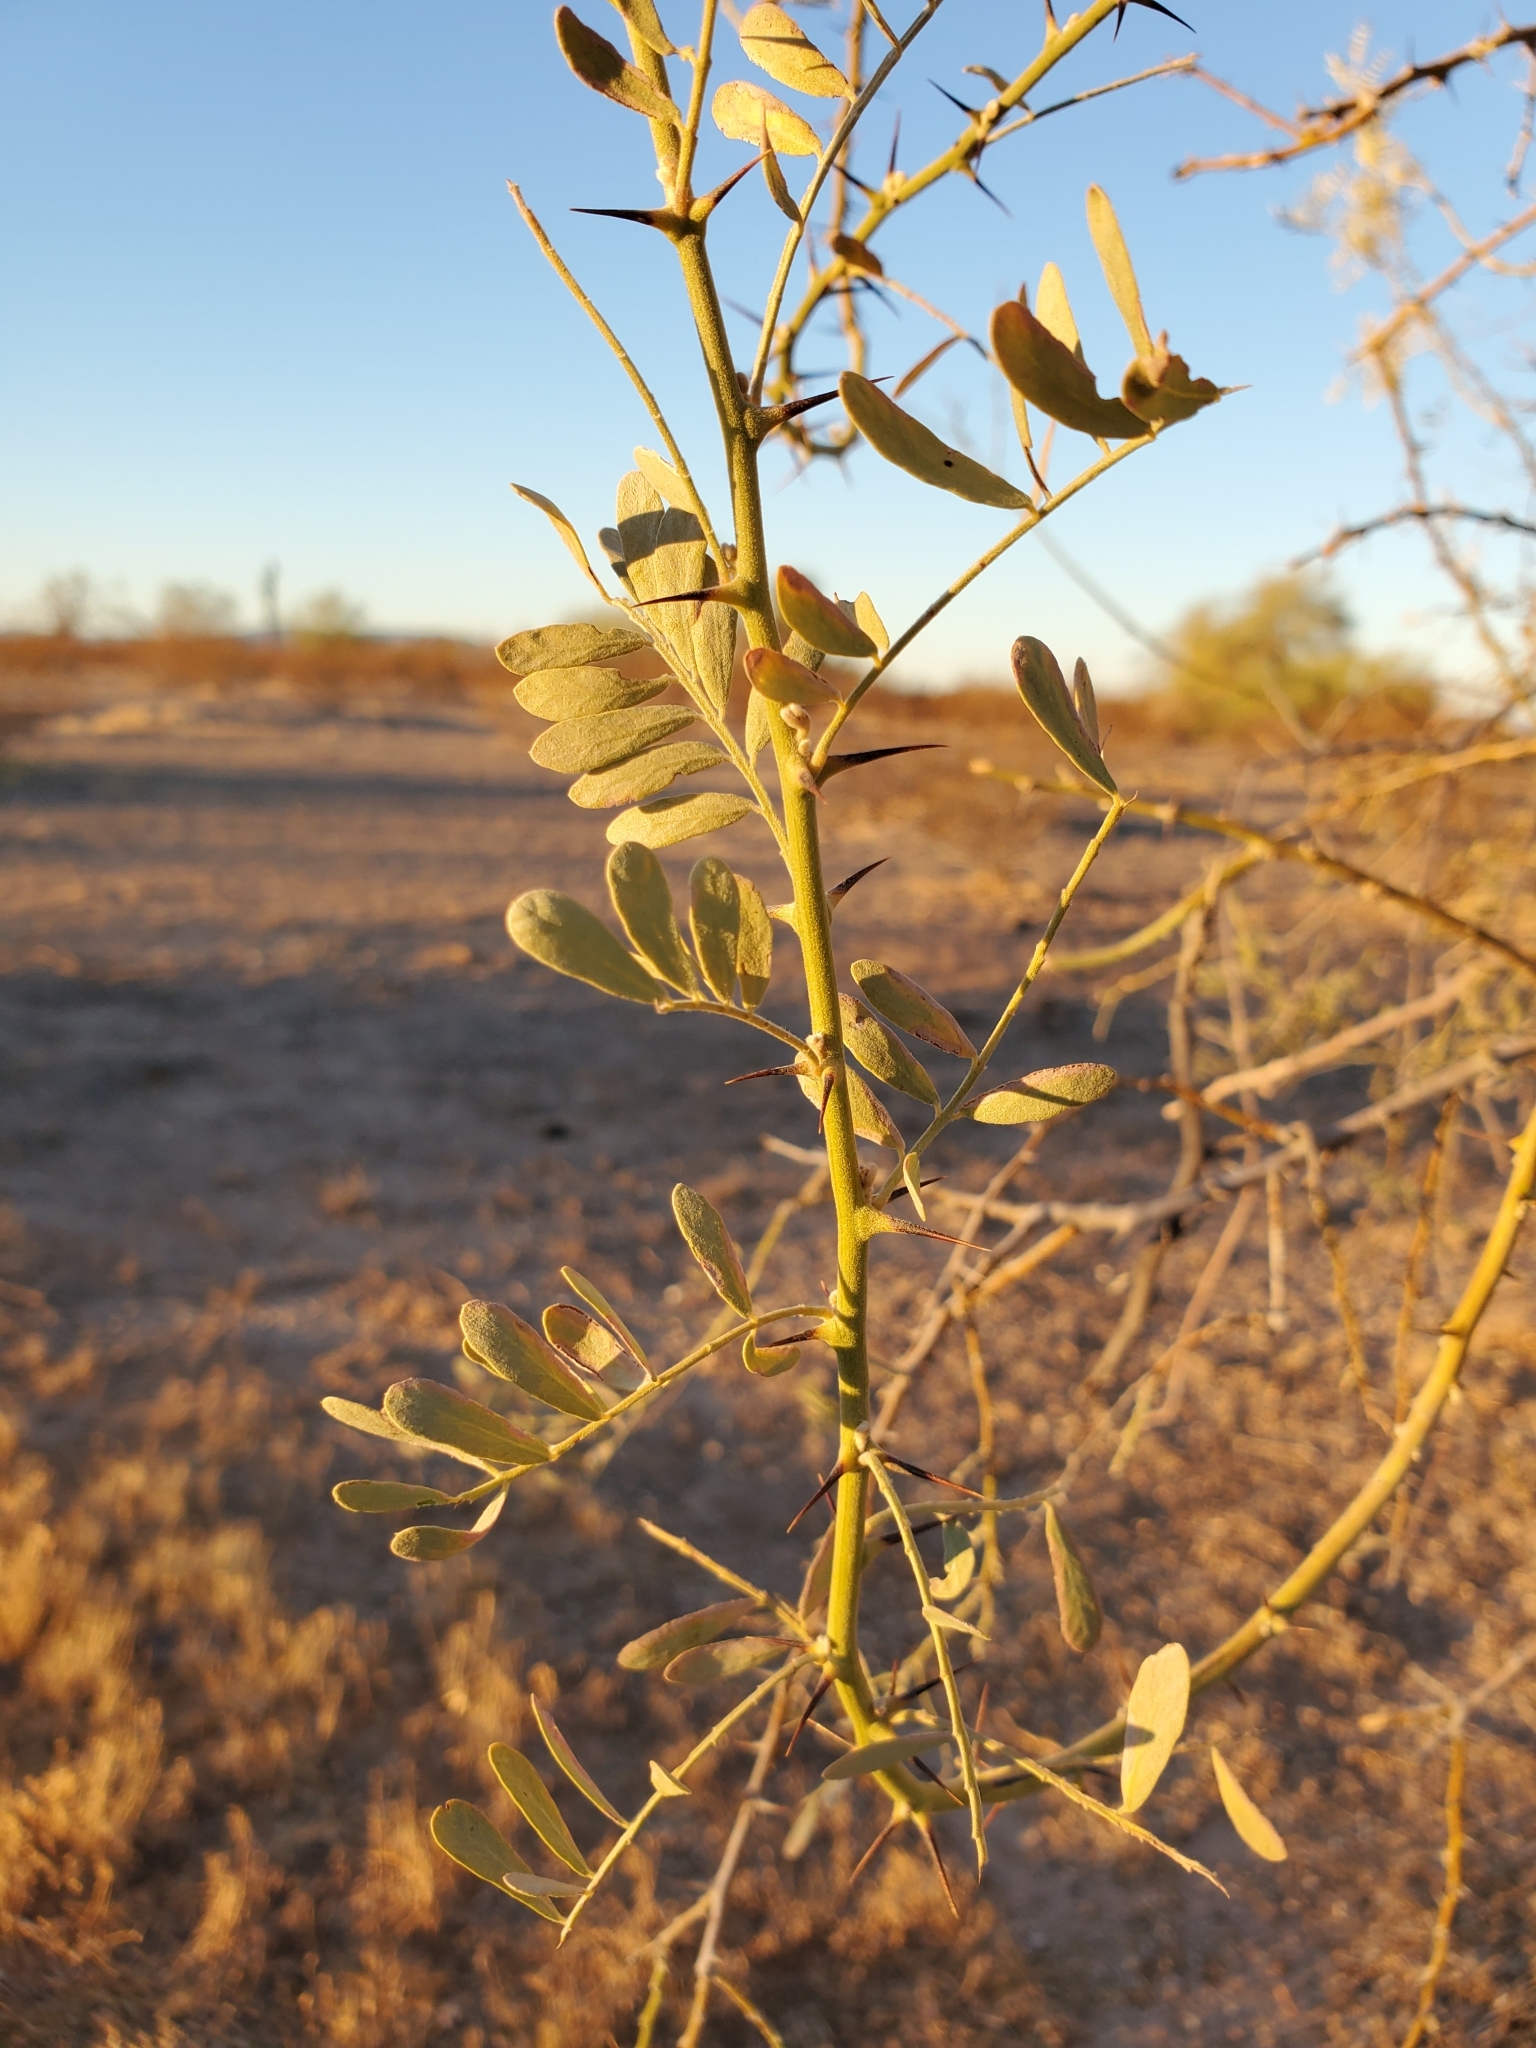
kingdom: Plantae
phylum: Tracheophyta
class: Magnoliopsida
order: Fabales
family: Fabaceae
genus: Olneya
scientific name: Olneya tesota
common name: Desert ironwood
